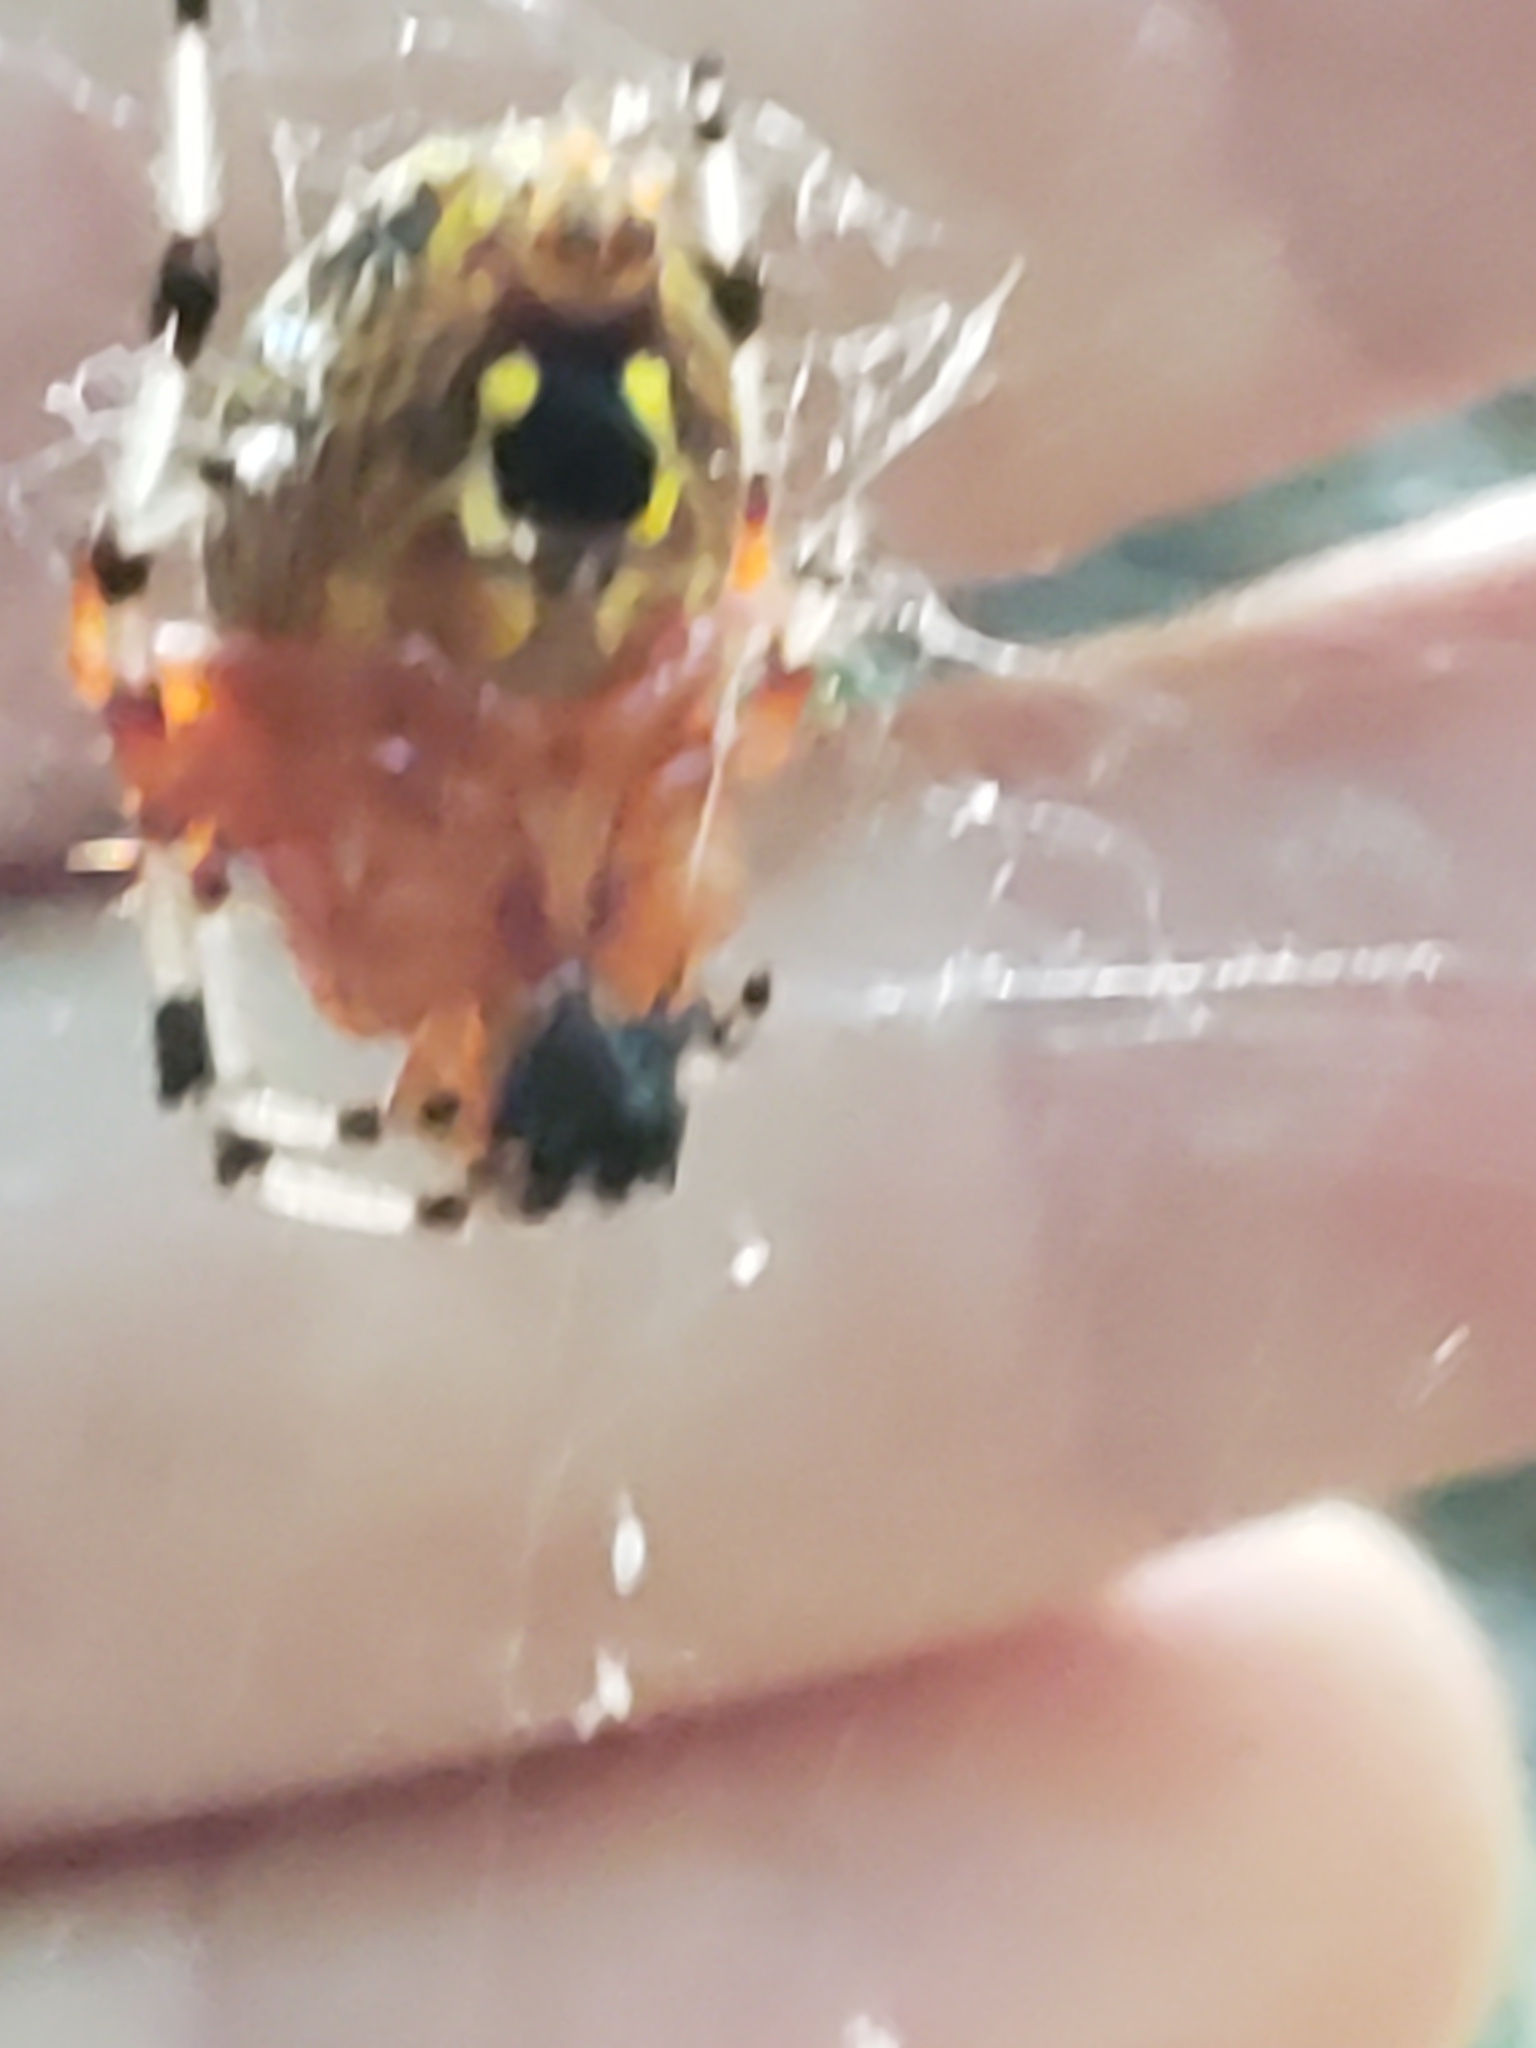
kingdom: Animalia
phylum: Arthropoda
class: Arachnida
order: Araneae
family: Araneidae
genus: Araneus
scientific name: Araneus marmoreus
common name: Marbled orbweaver
